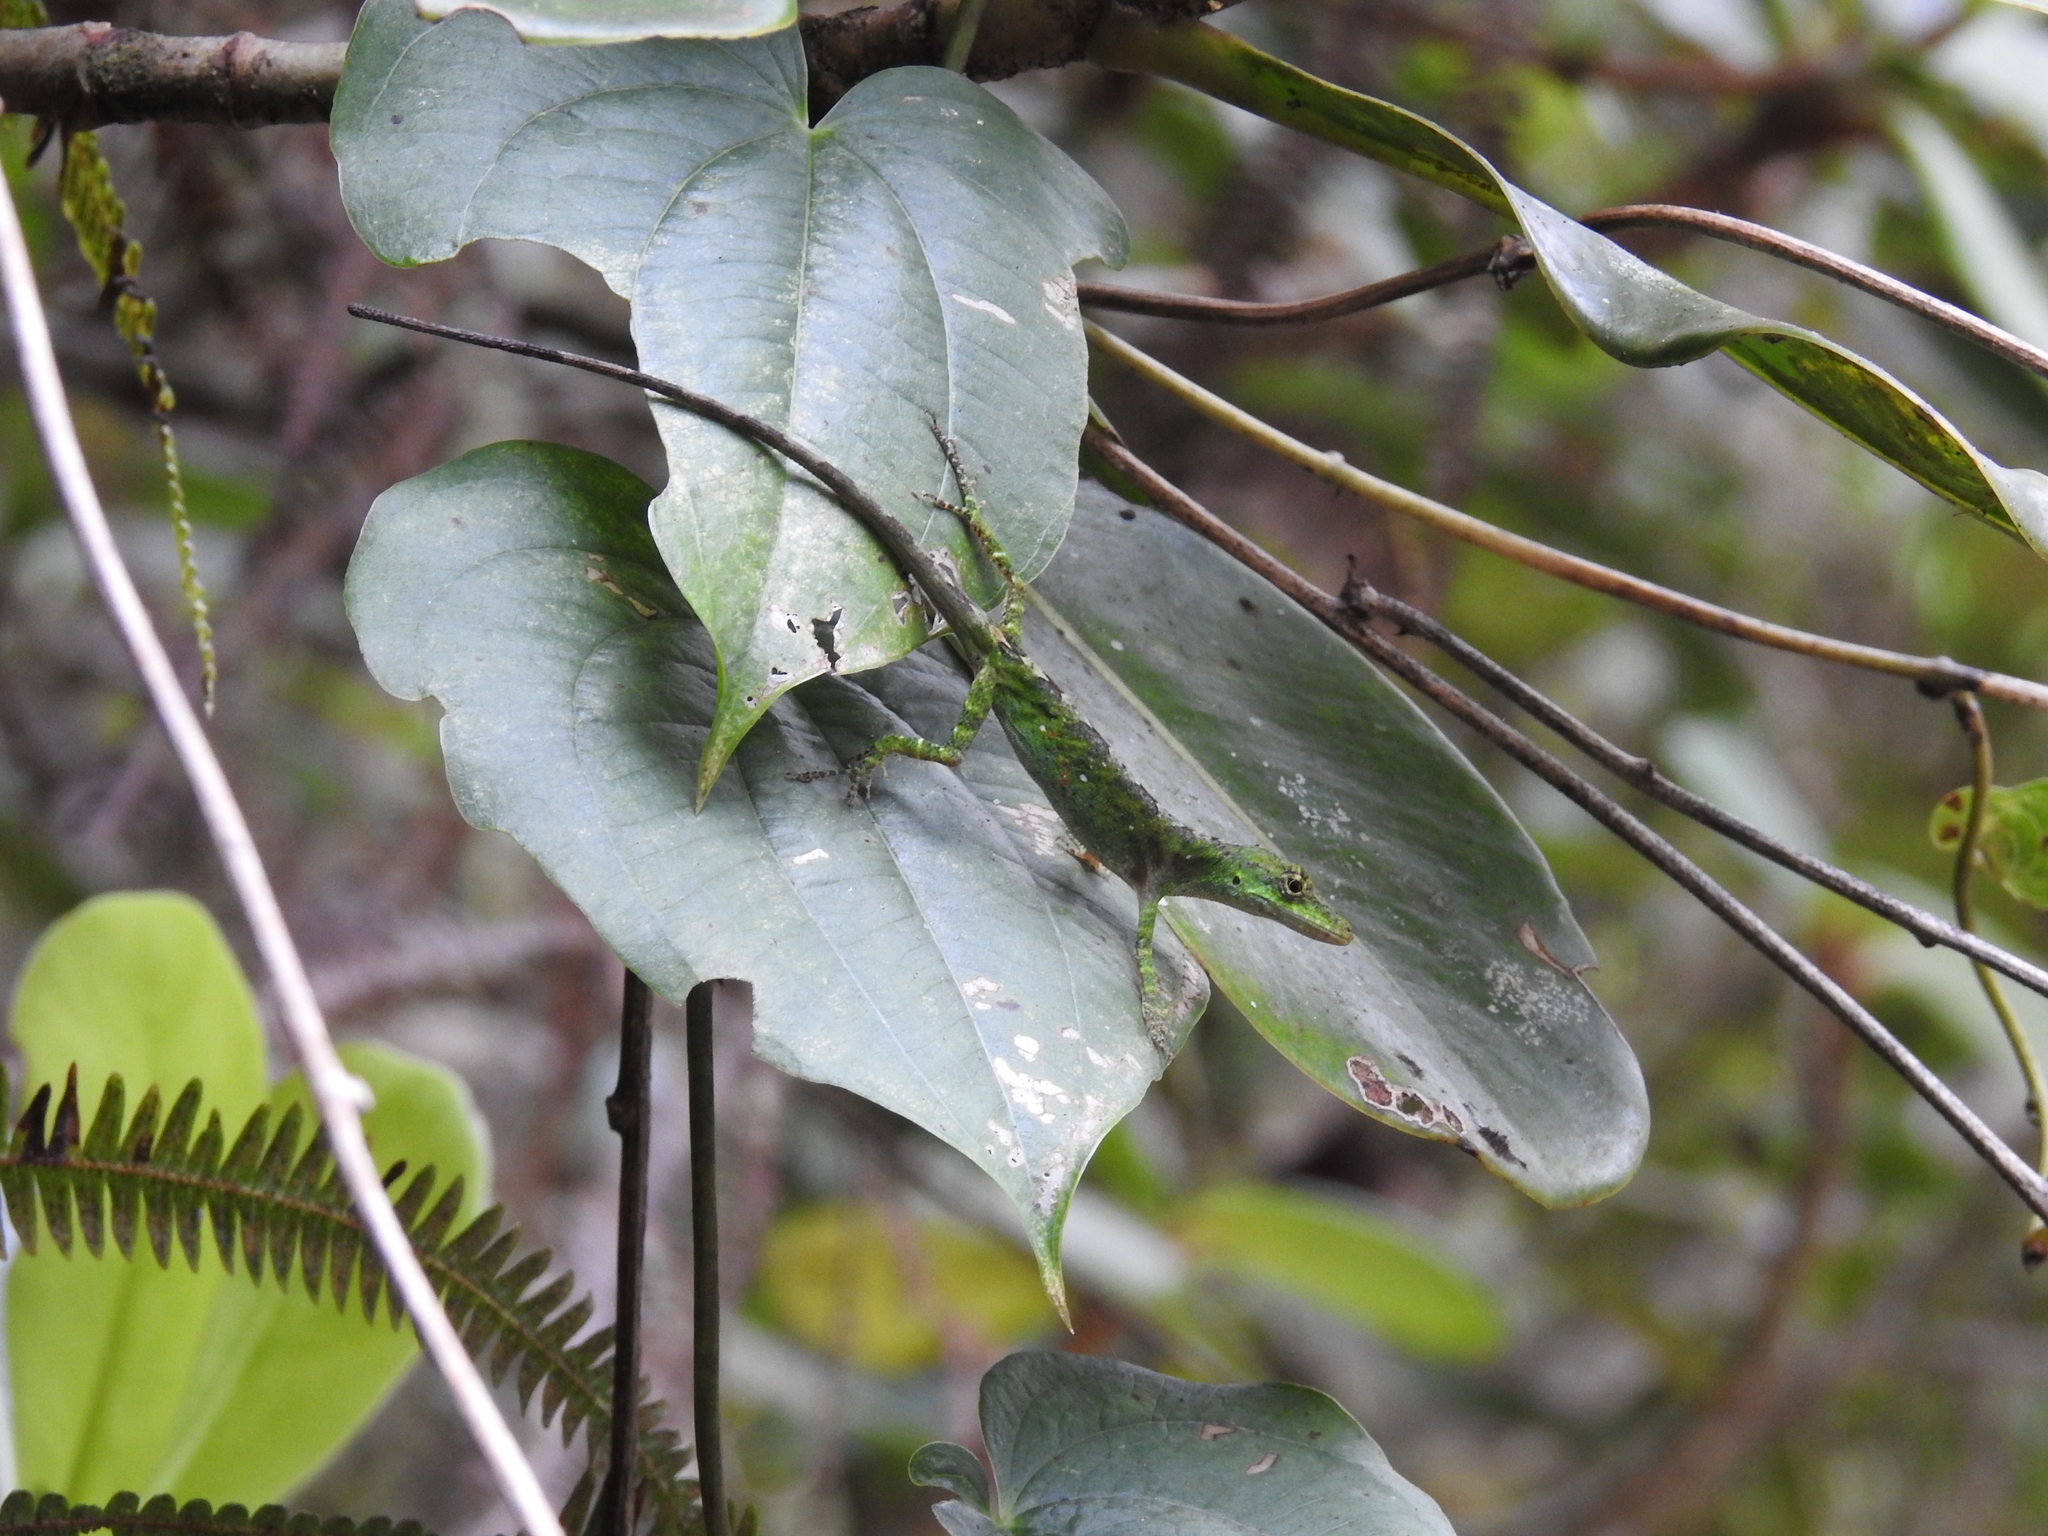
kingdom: Animalia
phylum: Chordata
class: Squamata
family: Dactyloidae
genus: Anolis
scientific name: Anolis solitarius
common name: Solitaire anole
